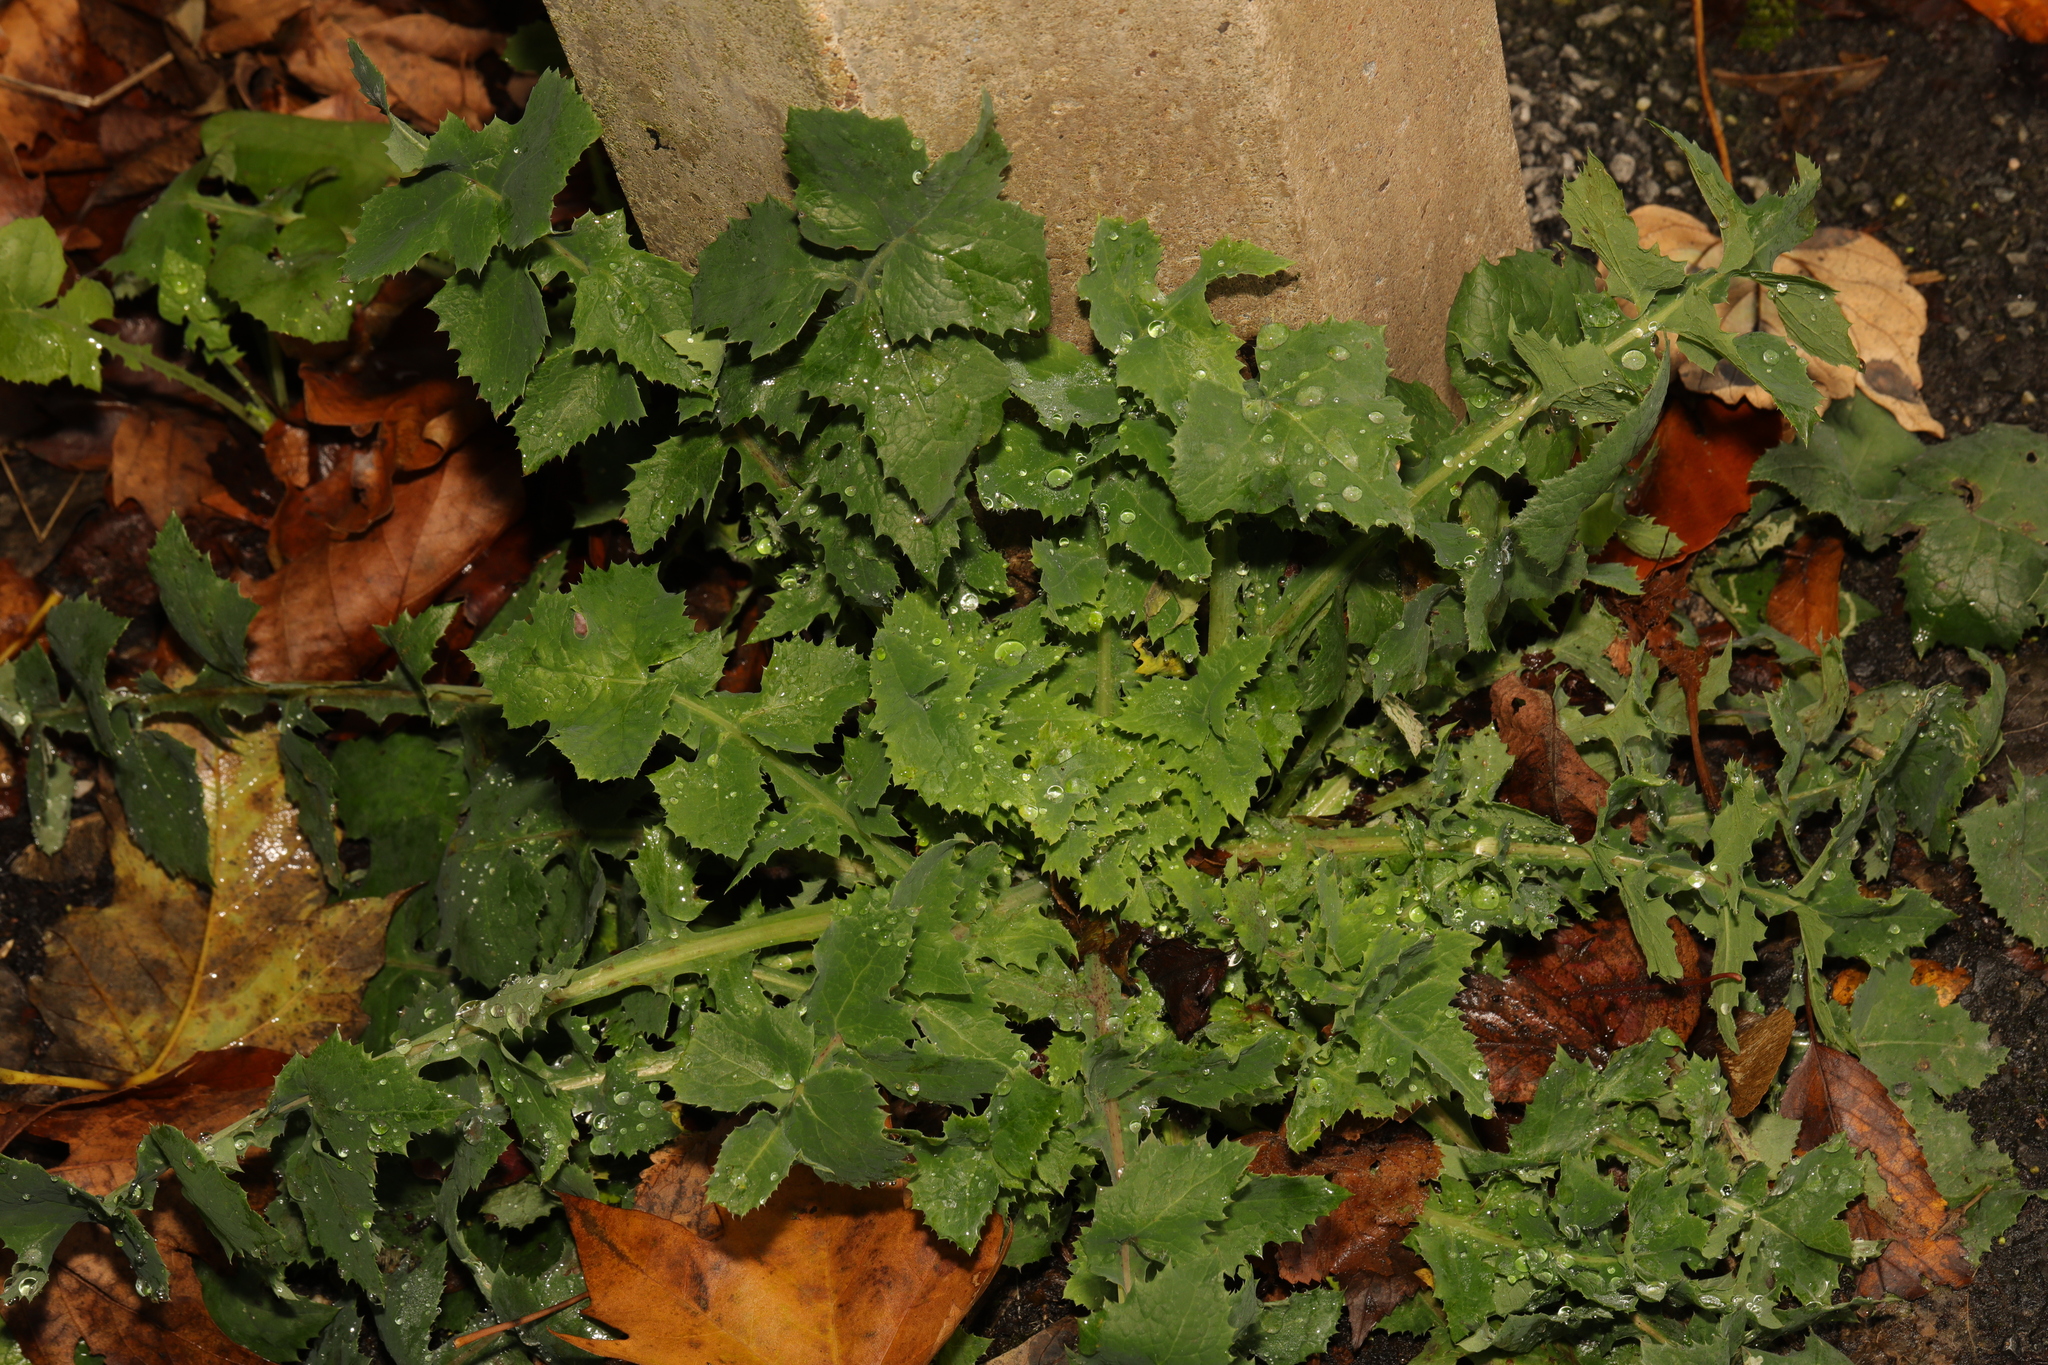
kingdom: Plantae
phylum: Tracheophyta
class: Magnoliopsida
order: Asterales
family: Asteraceae
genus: Sonchus
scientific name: Sonchus oleraceus
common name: Common sowthistle
